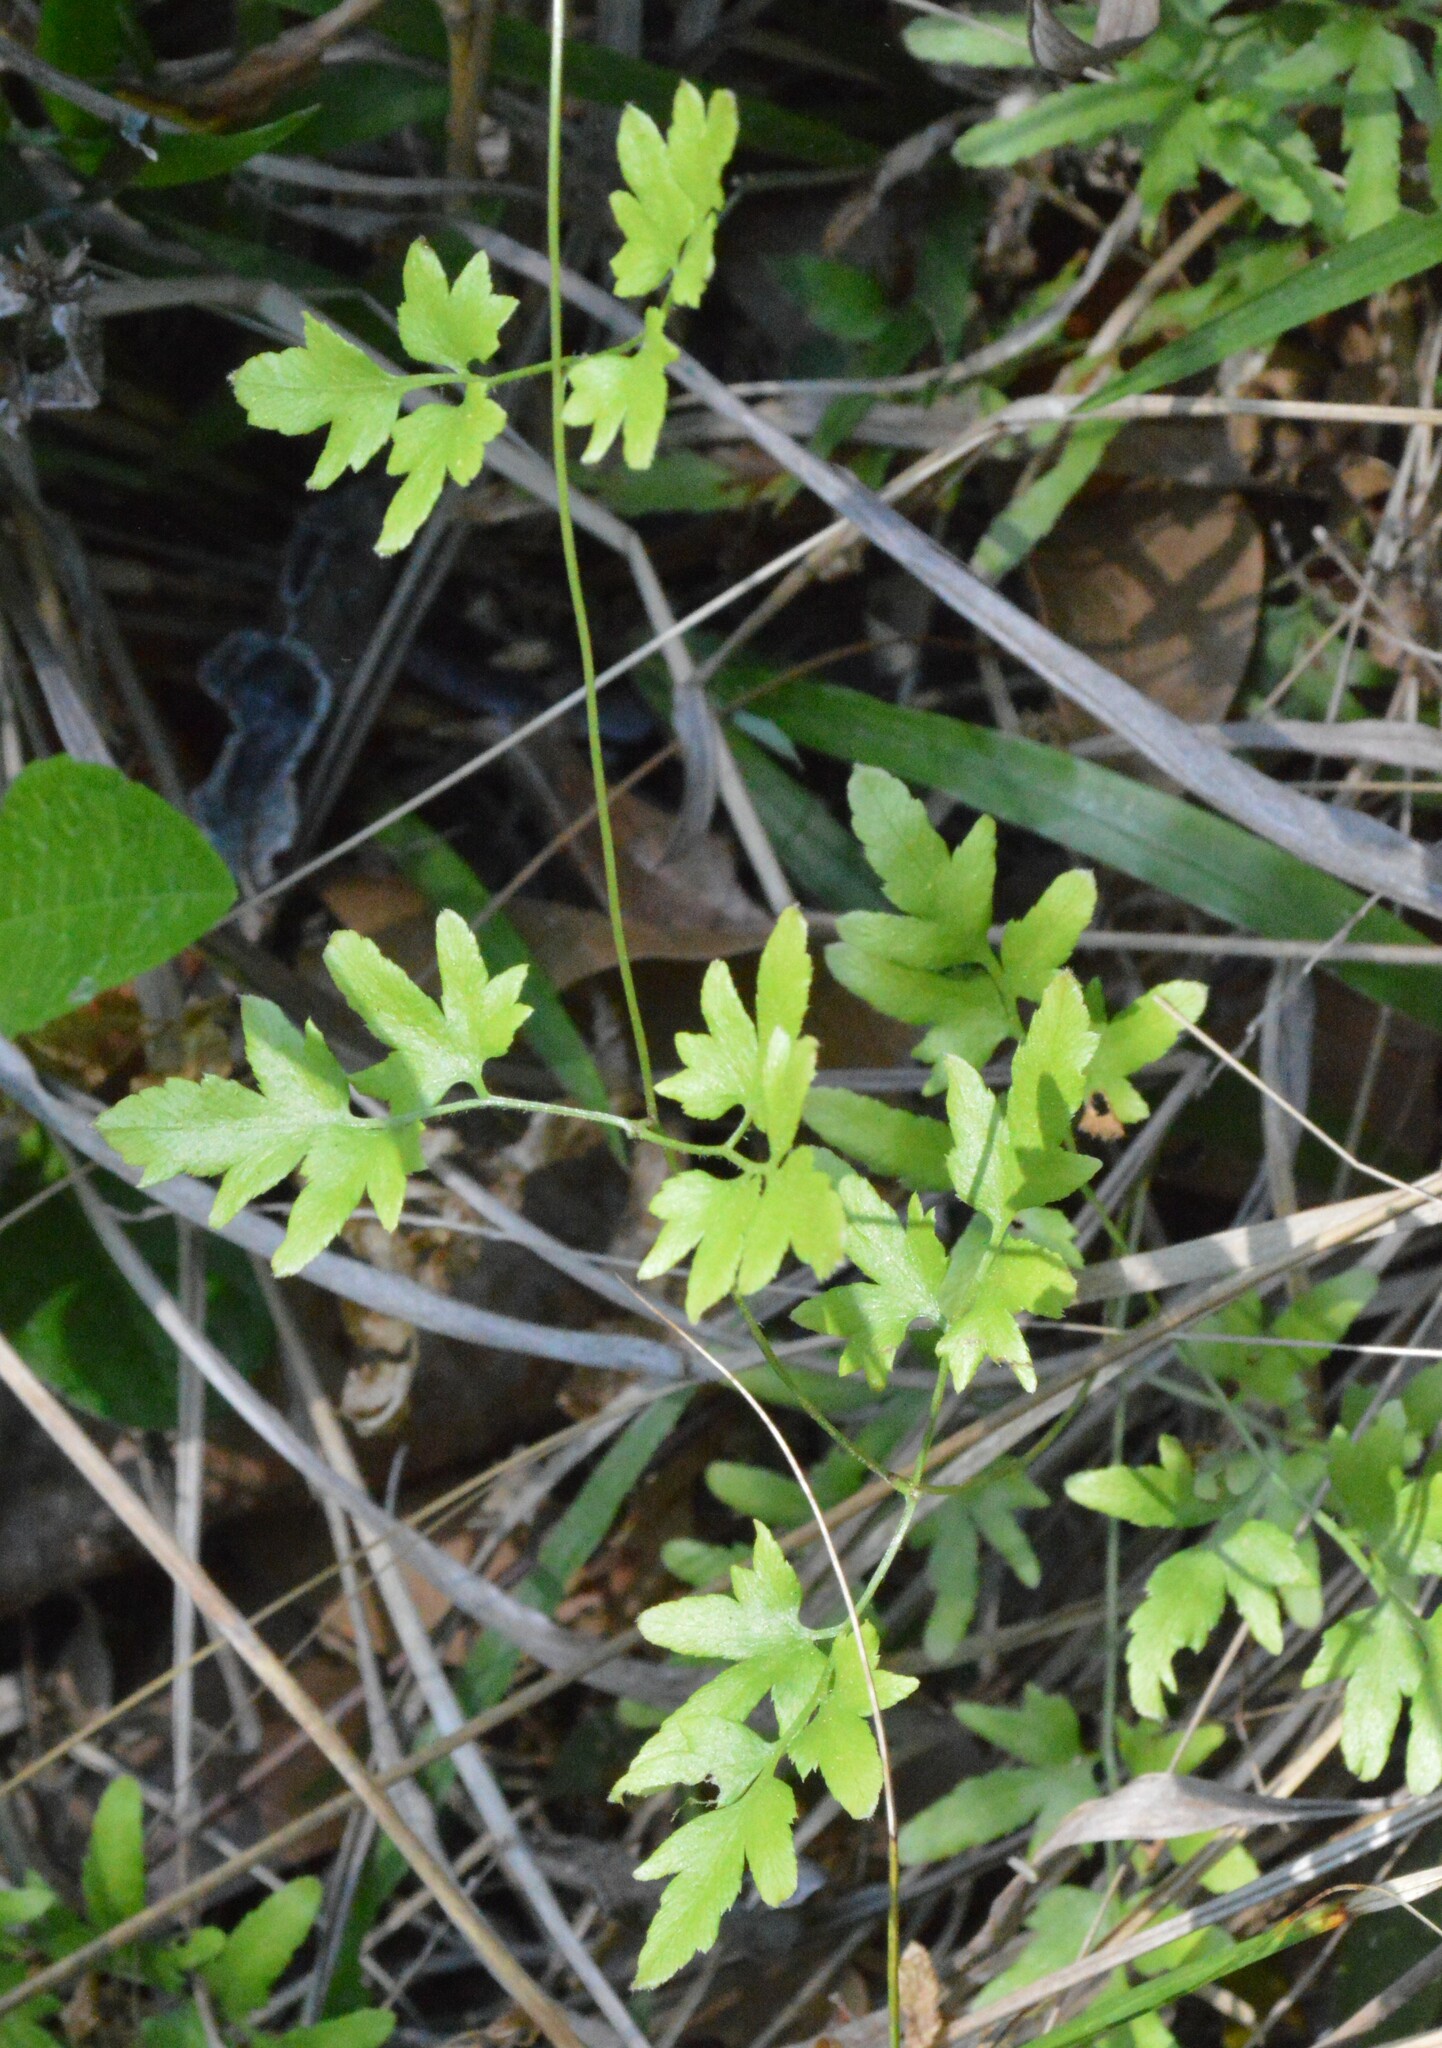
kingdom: Plantae
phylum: Tracheophyta
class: Polypodiopsida
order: Schizaeales
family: Lygodiaceae
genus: Lygodium
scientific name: Lygodium japonicum
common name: Japanese climbing fern
